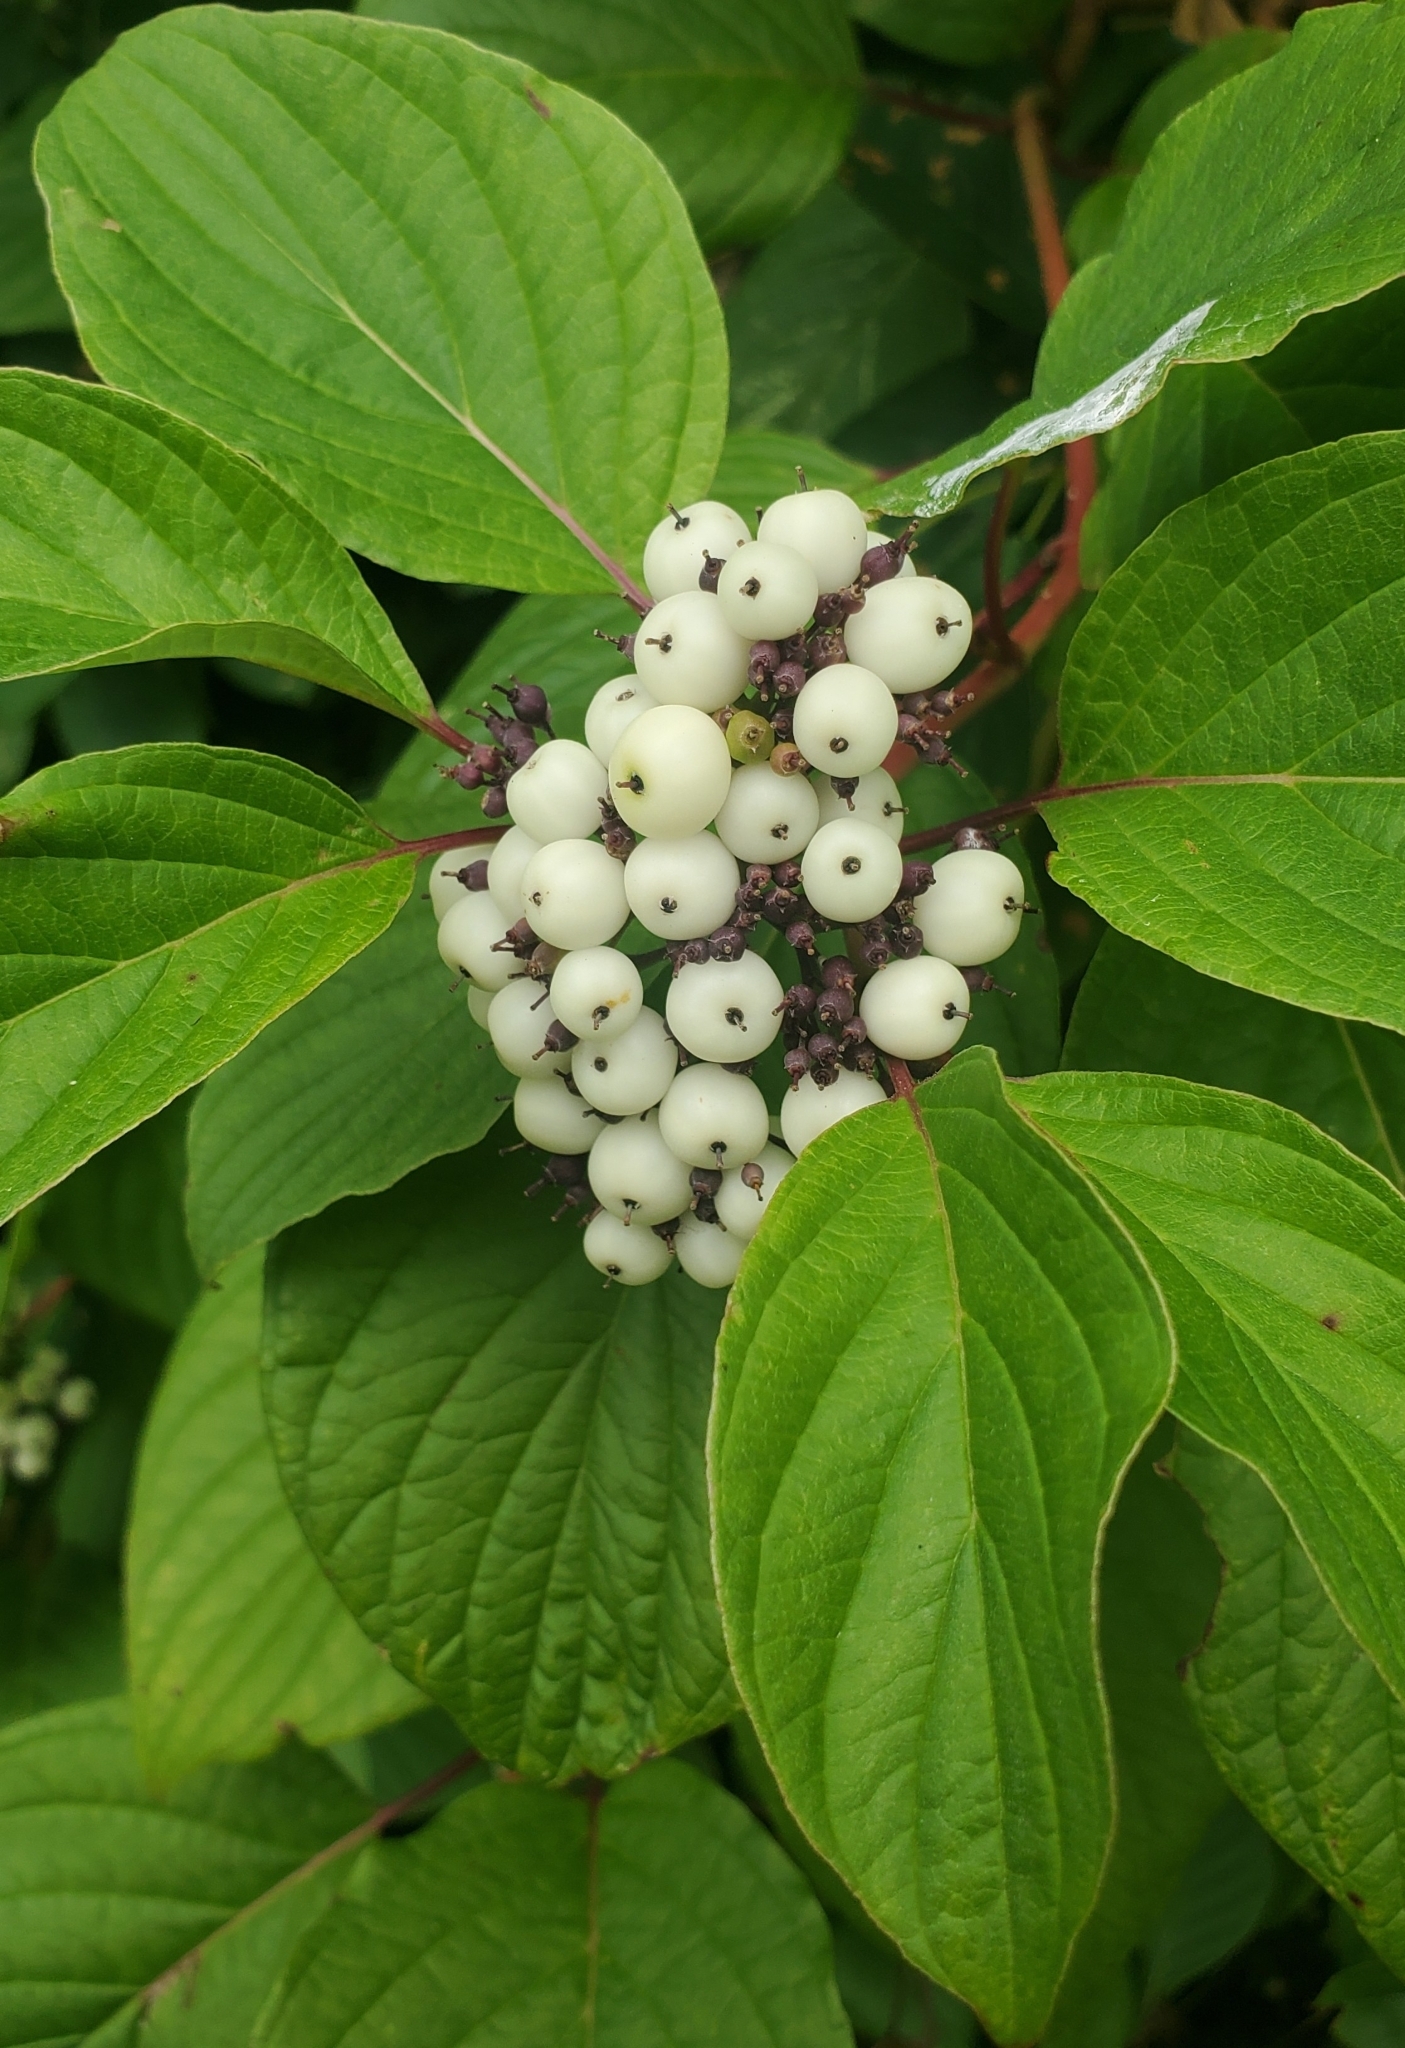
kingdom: Plantae
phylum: Tracheophyta
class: Magnoliopsida
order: Cornales
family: Cornaceae
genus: Cornus
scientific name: Cornus sericea
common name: Red-osier dogwood
